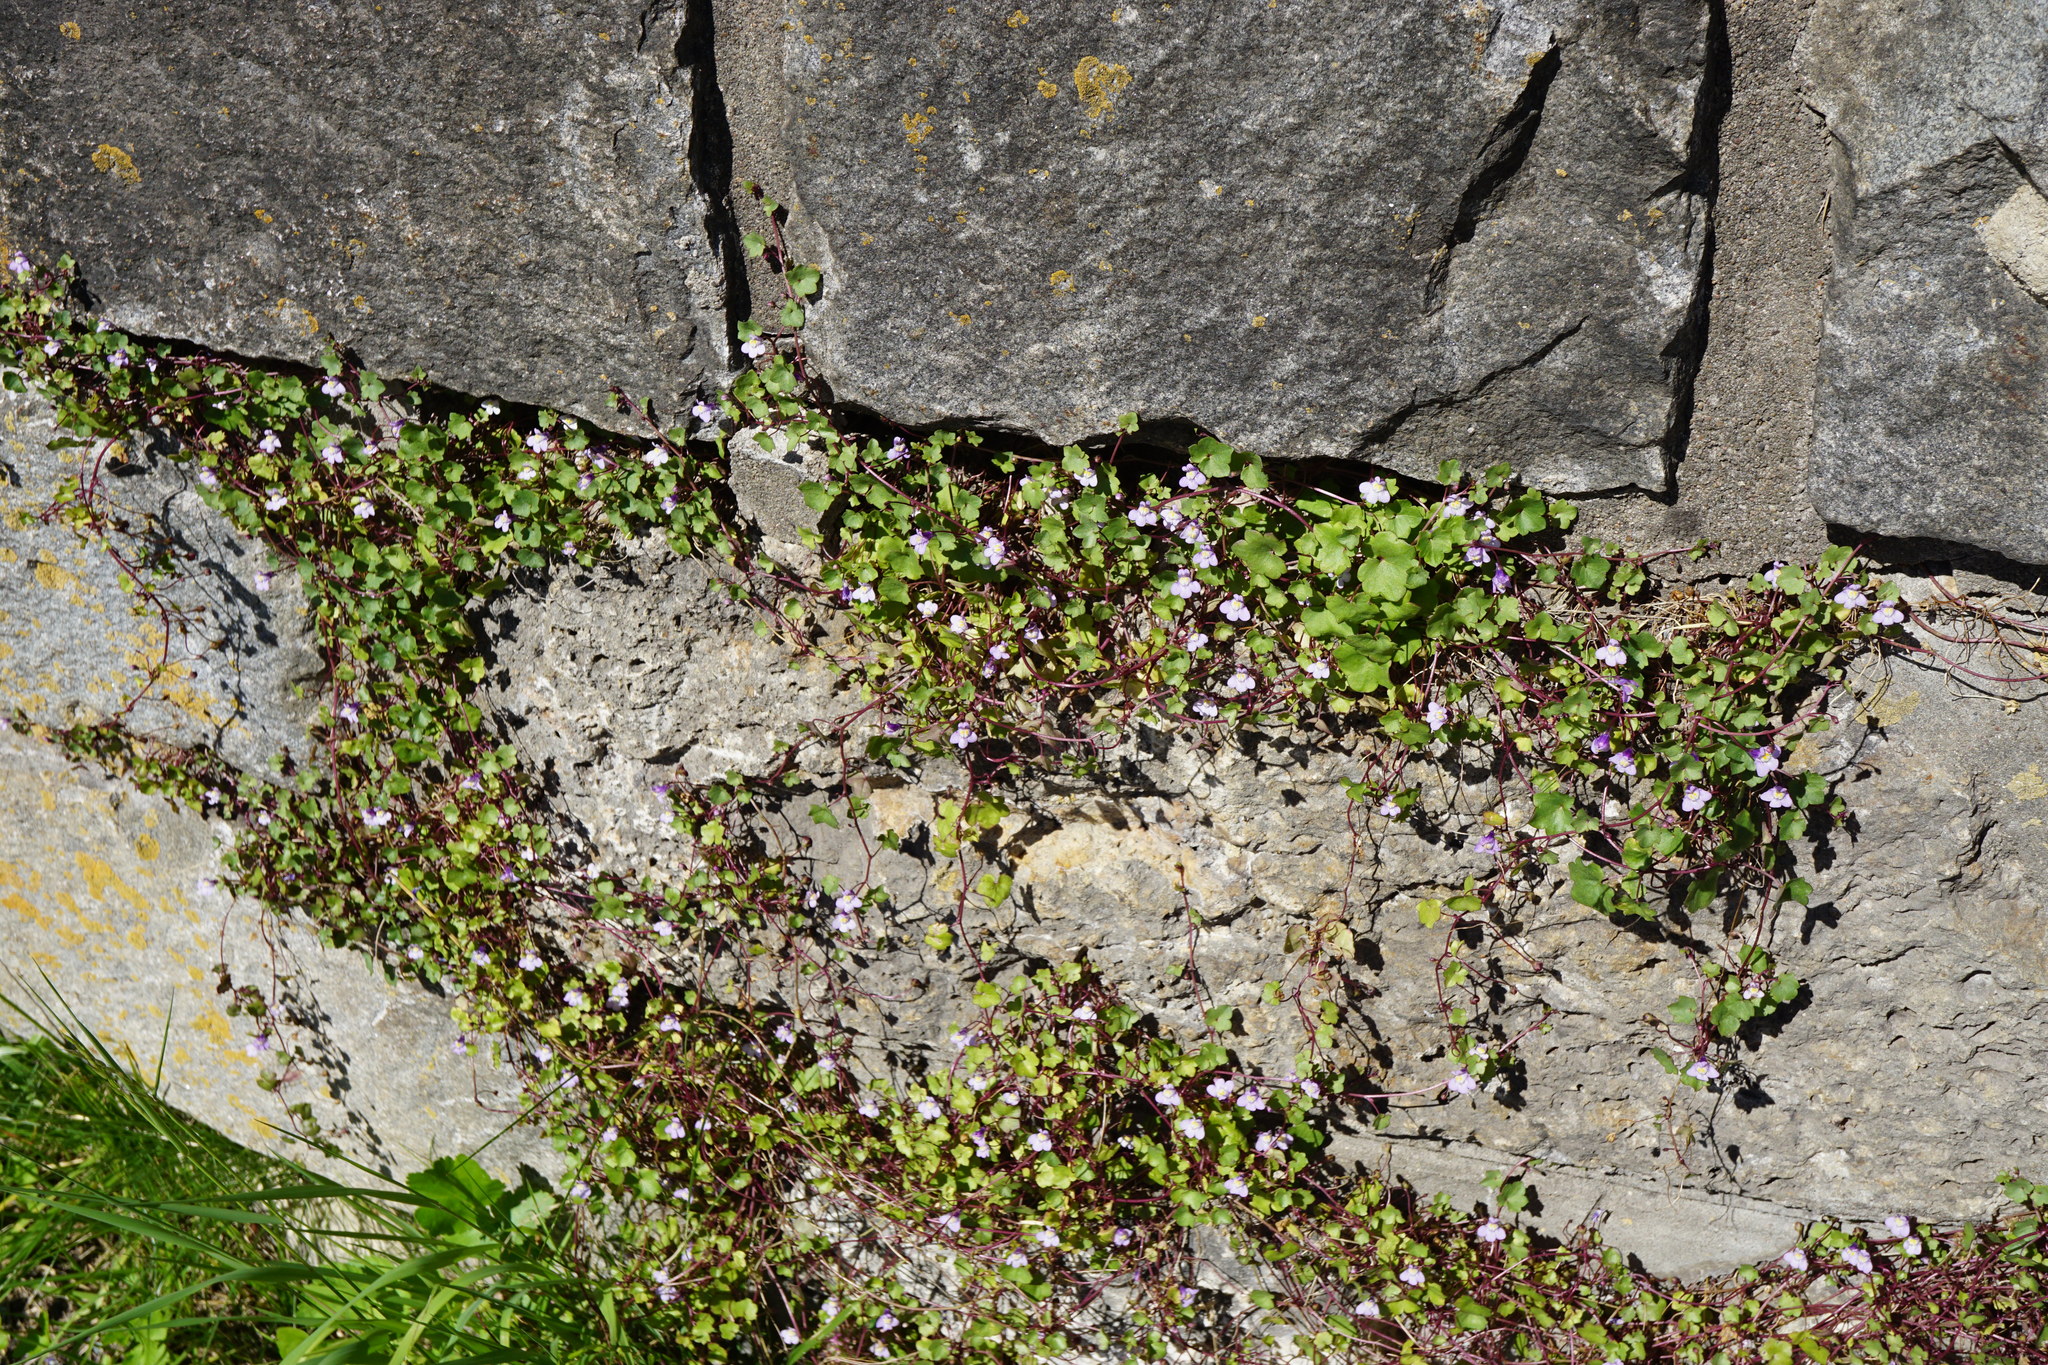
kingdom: Plantae
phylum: Tracheophyta
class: Magnoliopsida
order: Lamiales
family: Plantaginaceae
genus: Cymbalaria
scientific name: Cymbalaria muralis
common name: Ivy-leaved toadflax
